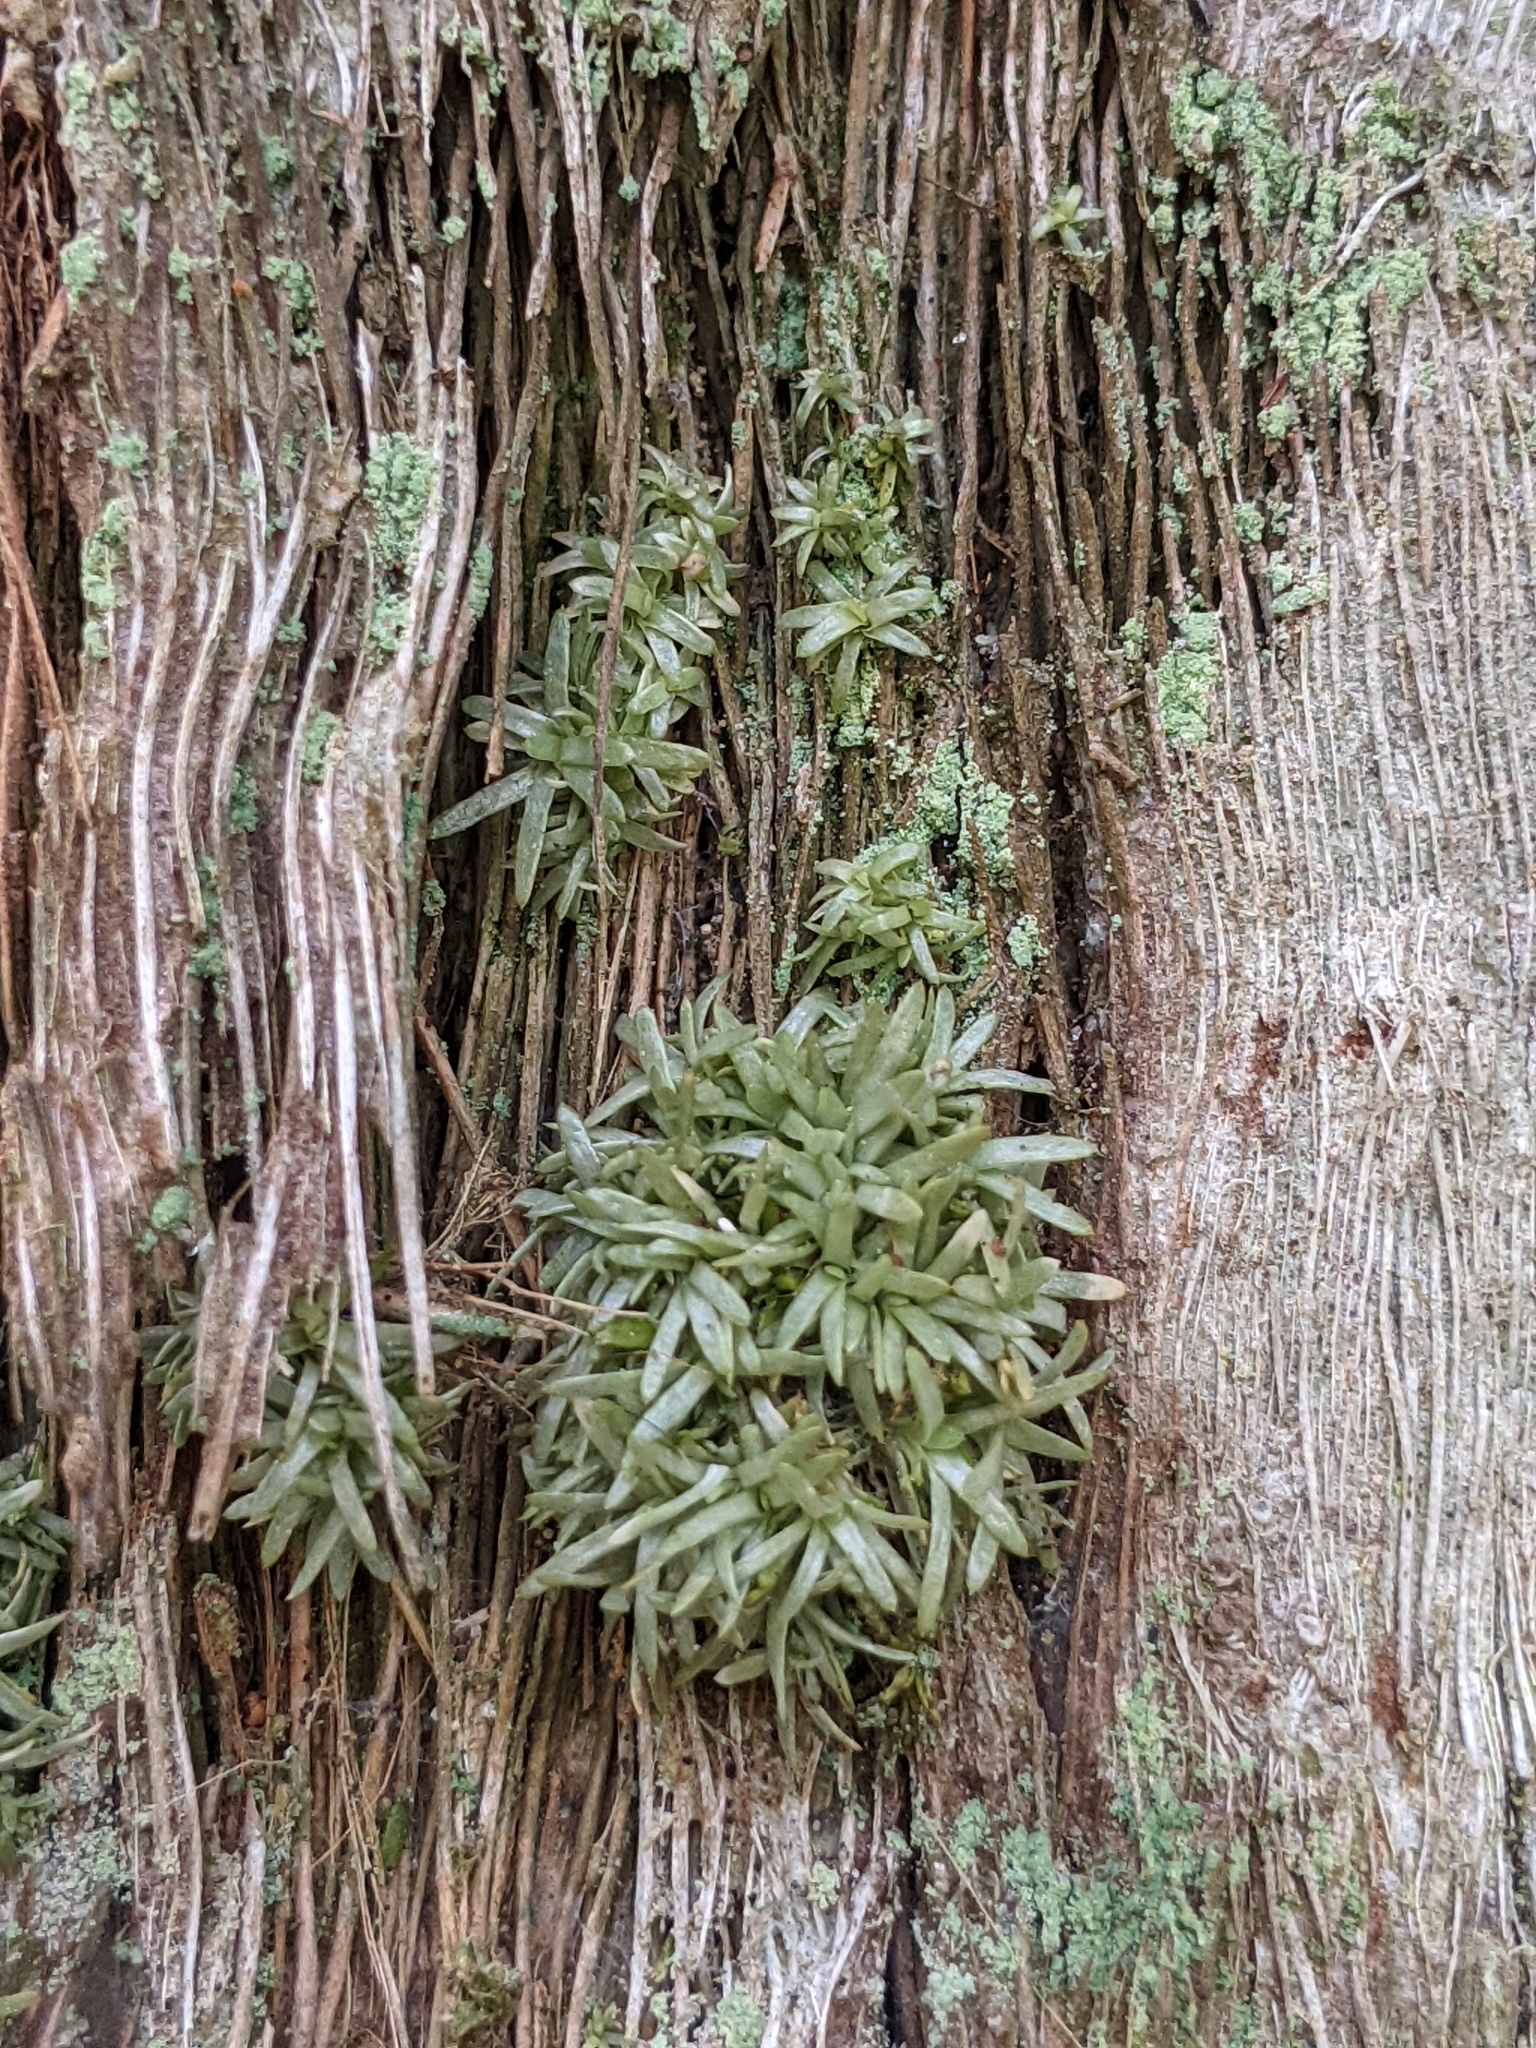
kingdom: Plantae
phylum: Bryophyta
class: Bryopsida
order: Dicranales
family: Octoblepharaceae
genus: Octoblepharum
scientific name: Octoblepharum albidum
